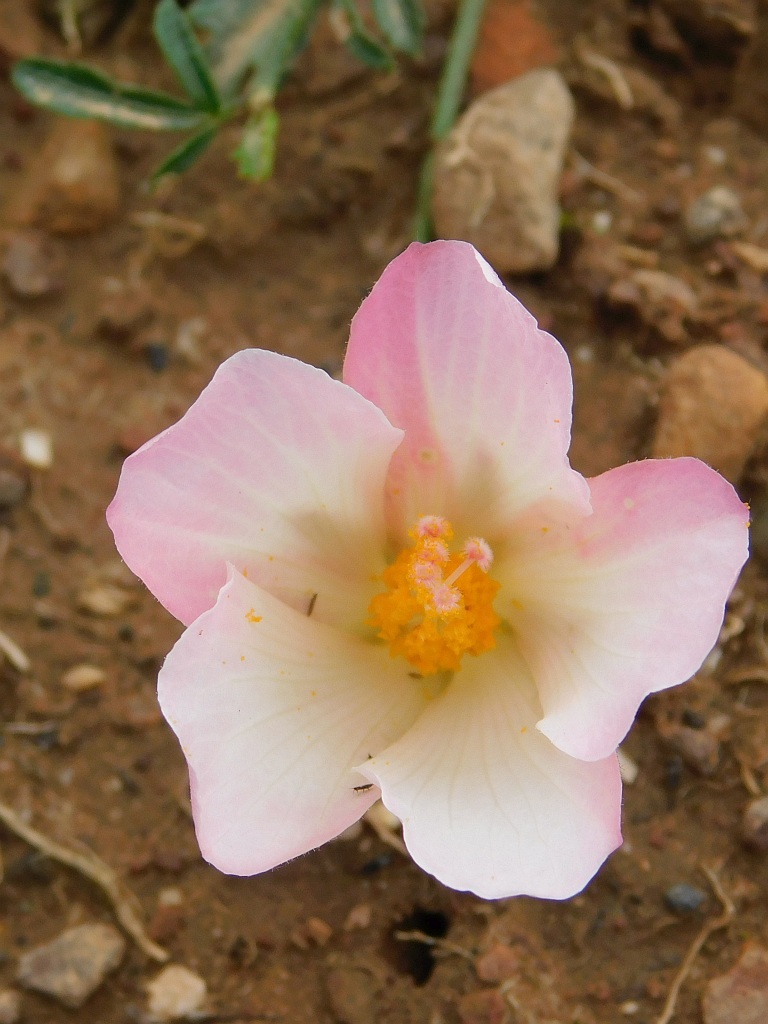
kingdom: Plantae
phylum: Tracheophyta
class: Magnoliopsida
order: Malvales
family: Malvaceae
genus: Hibiscus
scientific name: Hibiscus pusillus
